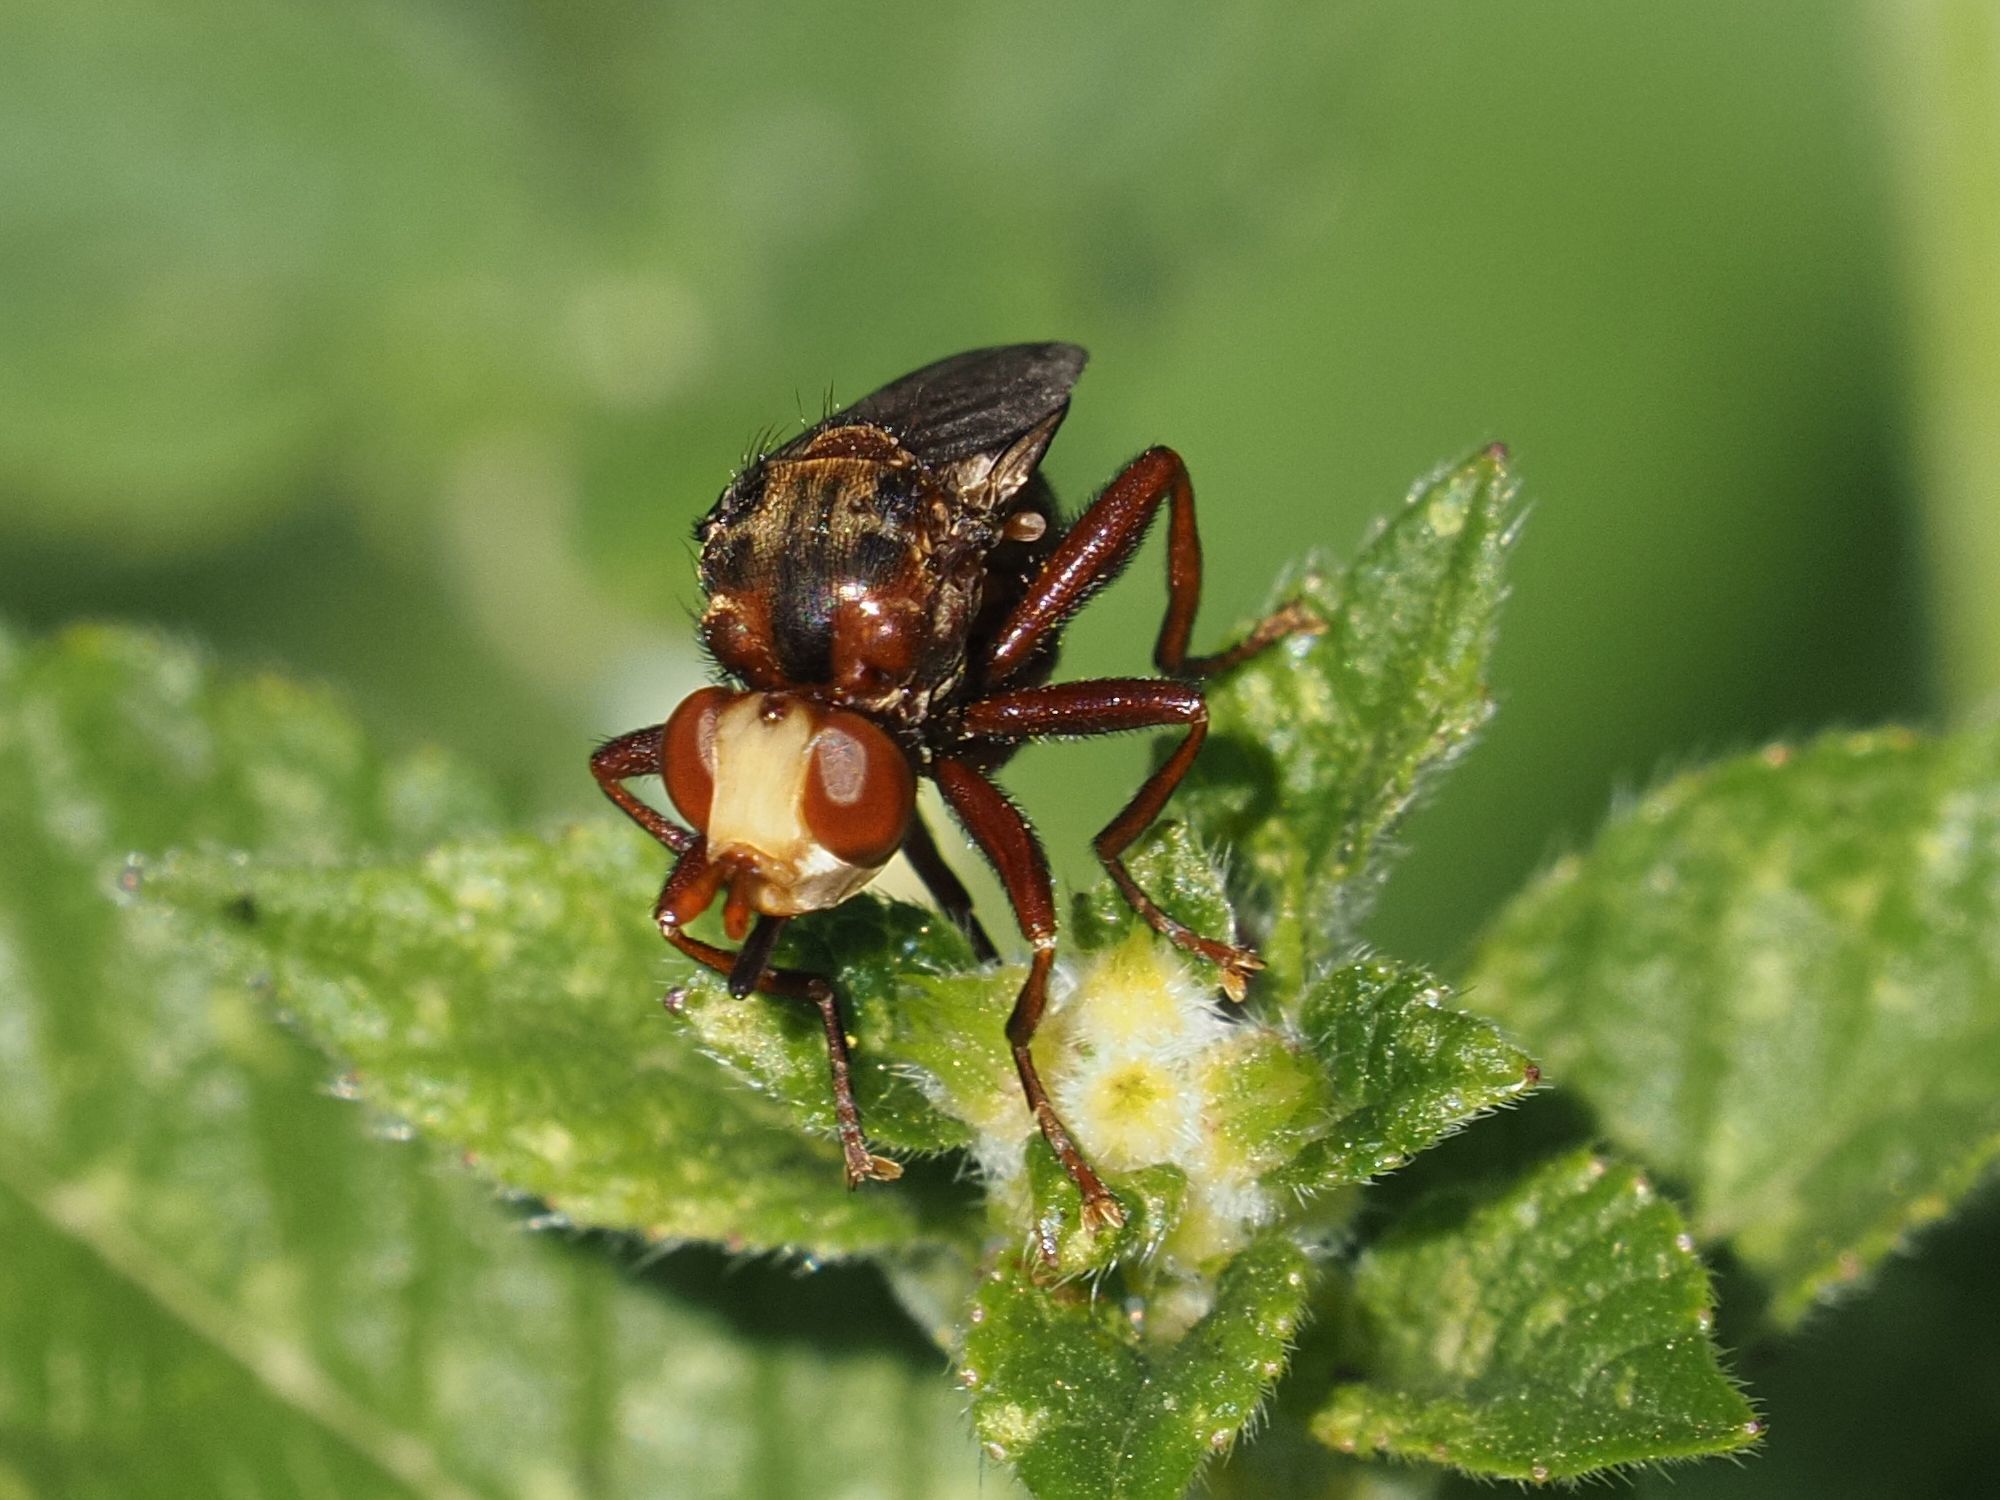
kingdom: Animalia
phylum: Arthropoda
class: Insecta
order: Diptera
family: Conopidae
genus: Sicus
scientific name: Sicus ferrugineus
